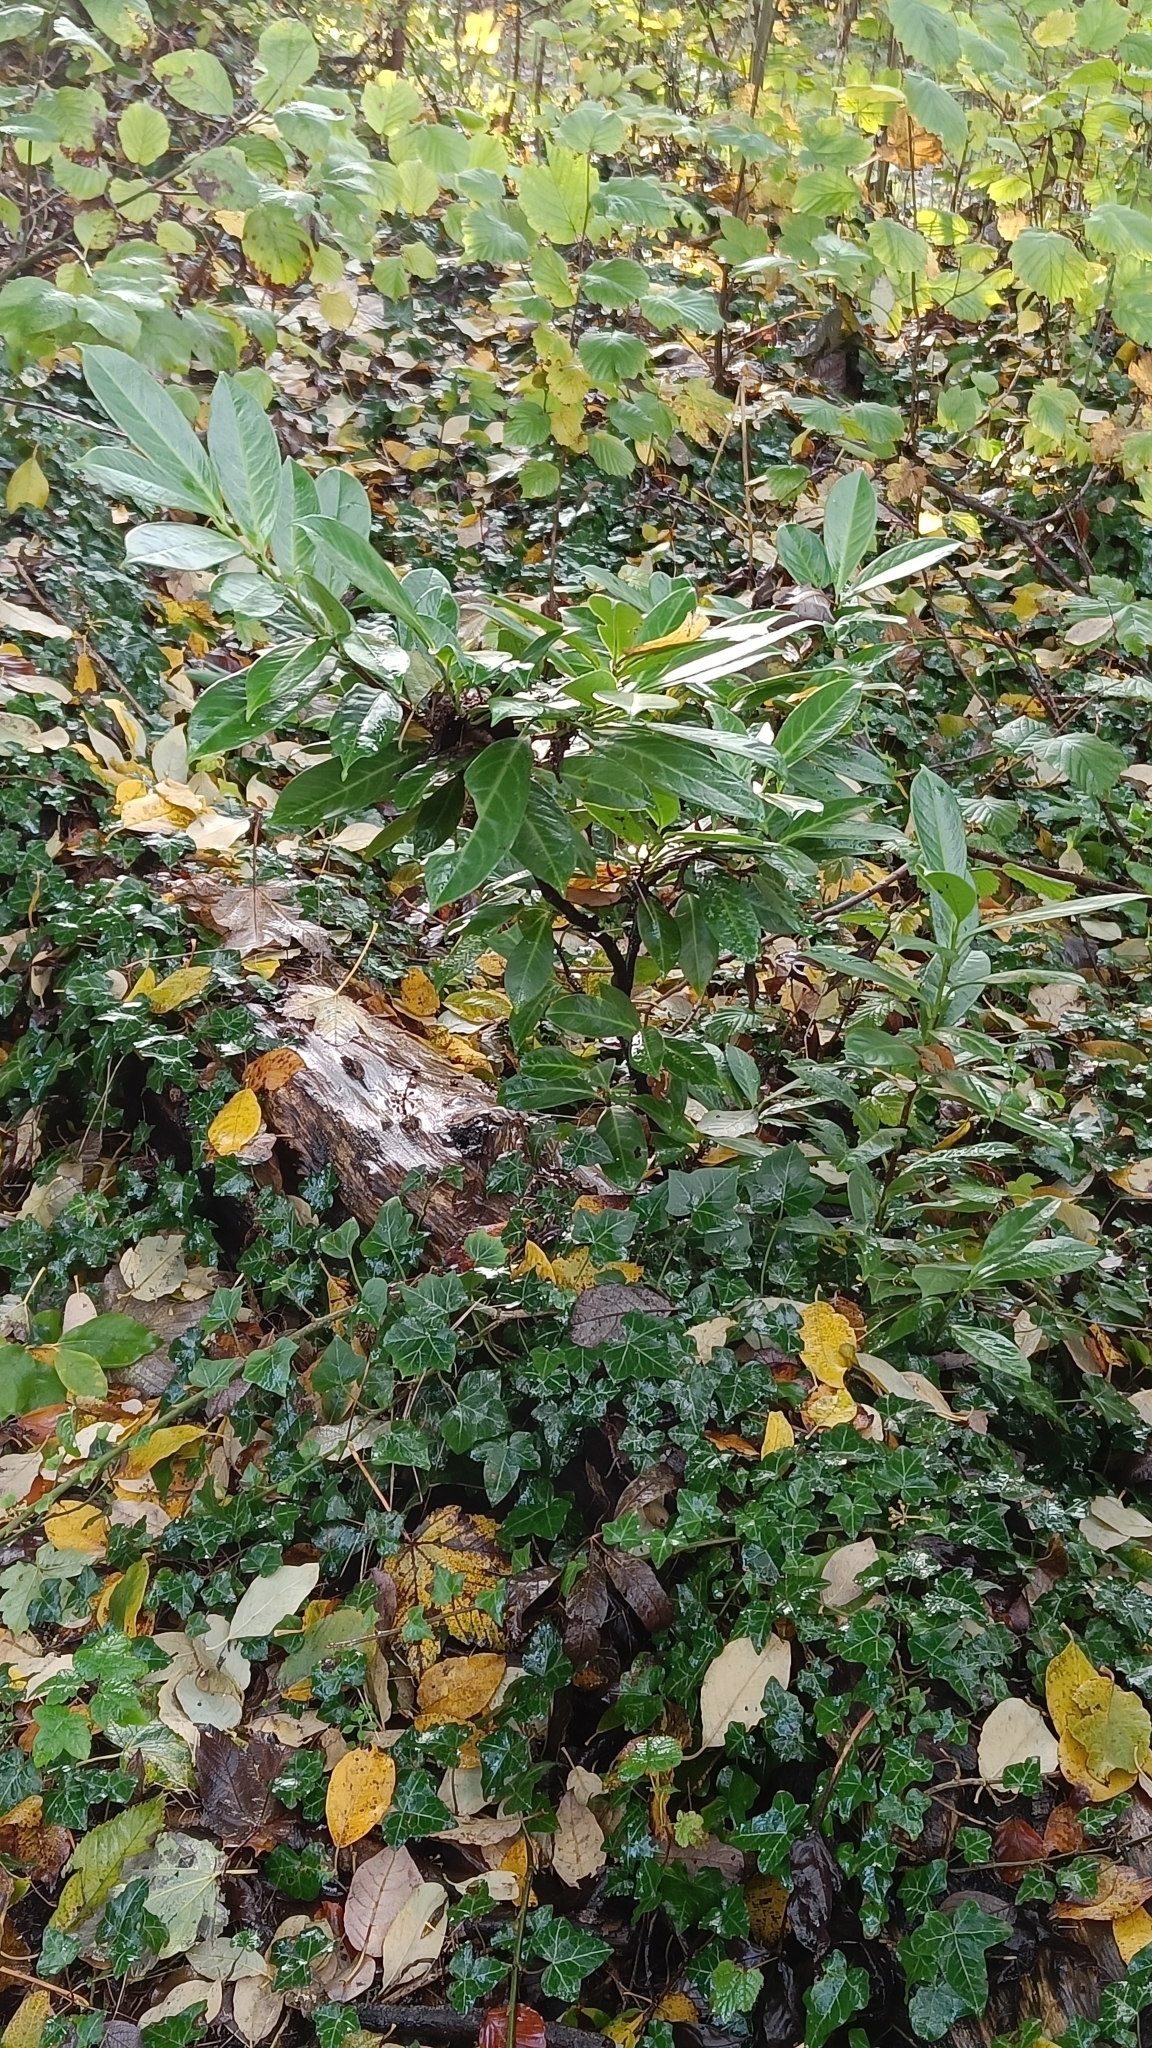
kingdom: Plantae
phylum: Tracheophyta
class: Magnoliopsida
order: Rosales
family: Rosaceae
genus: Prunus
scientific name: Prunus laurocerasus
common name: Cherry laurel
